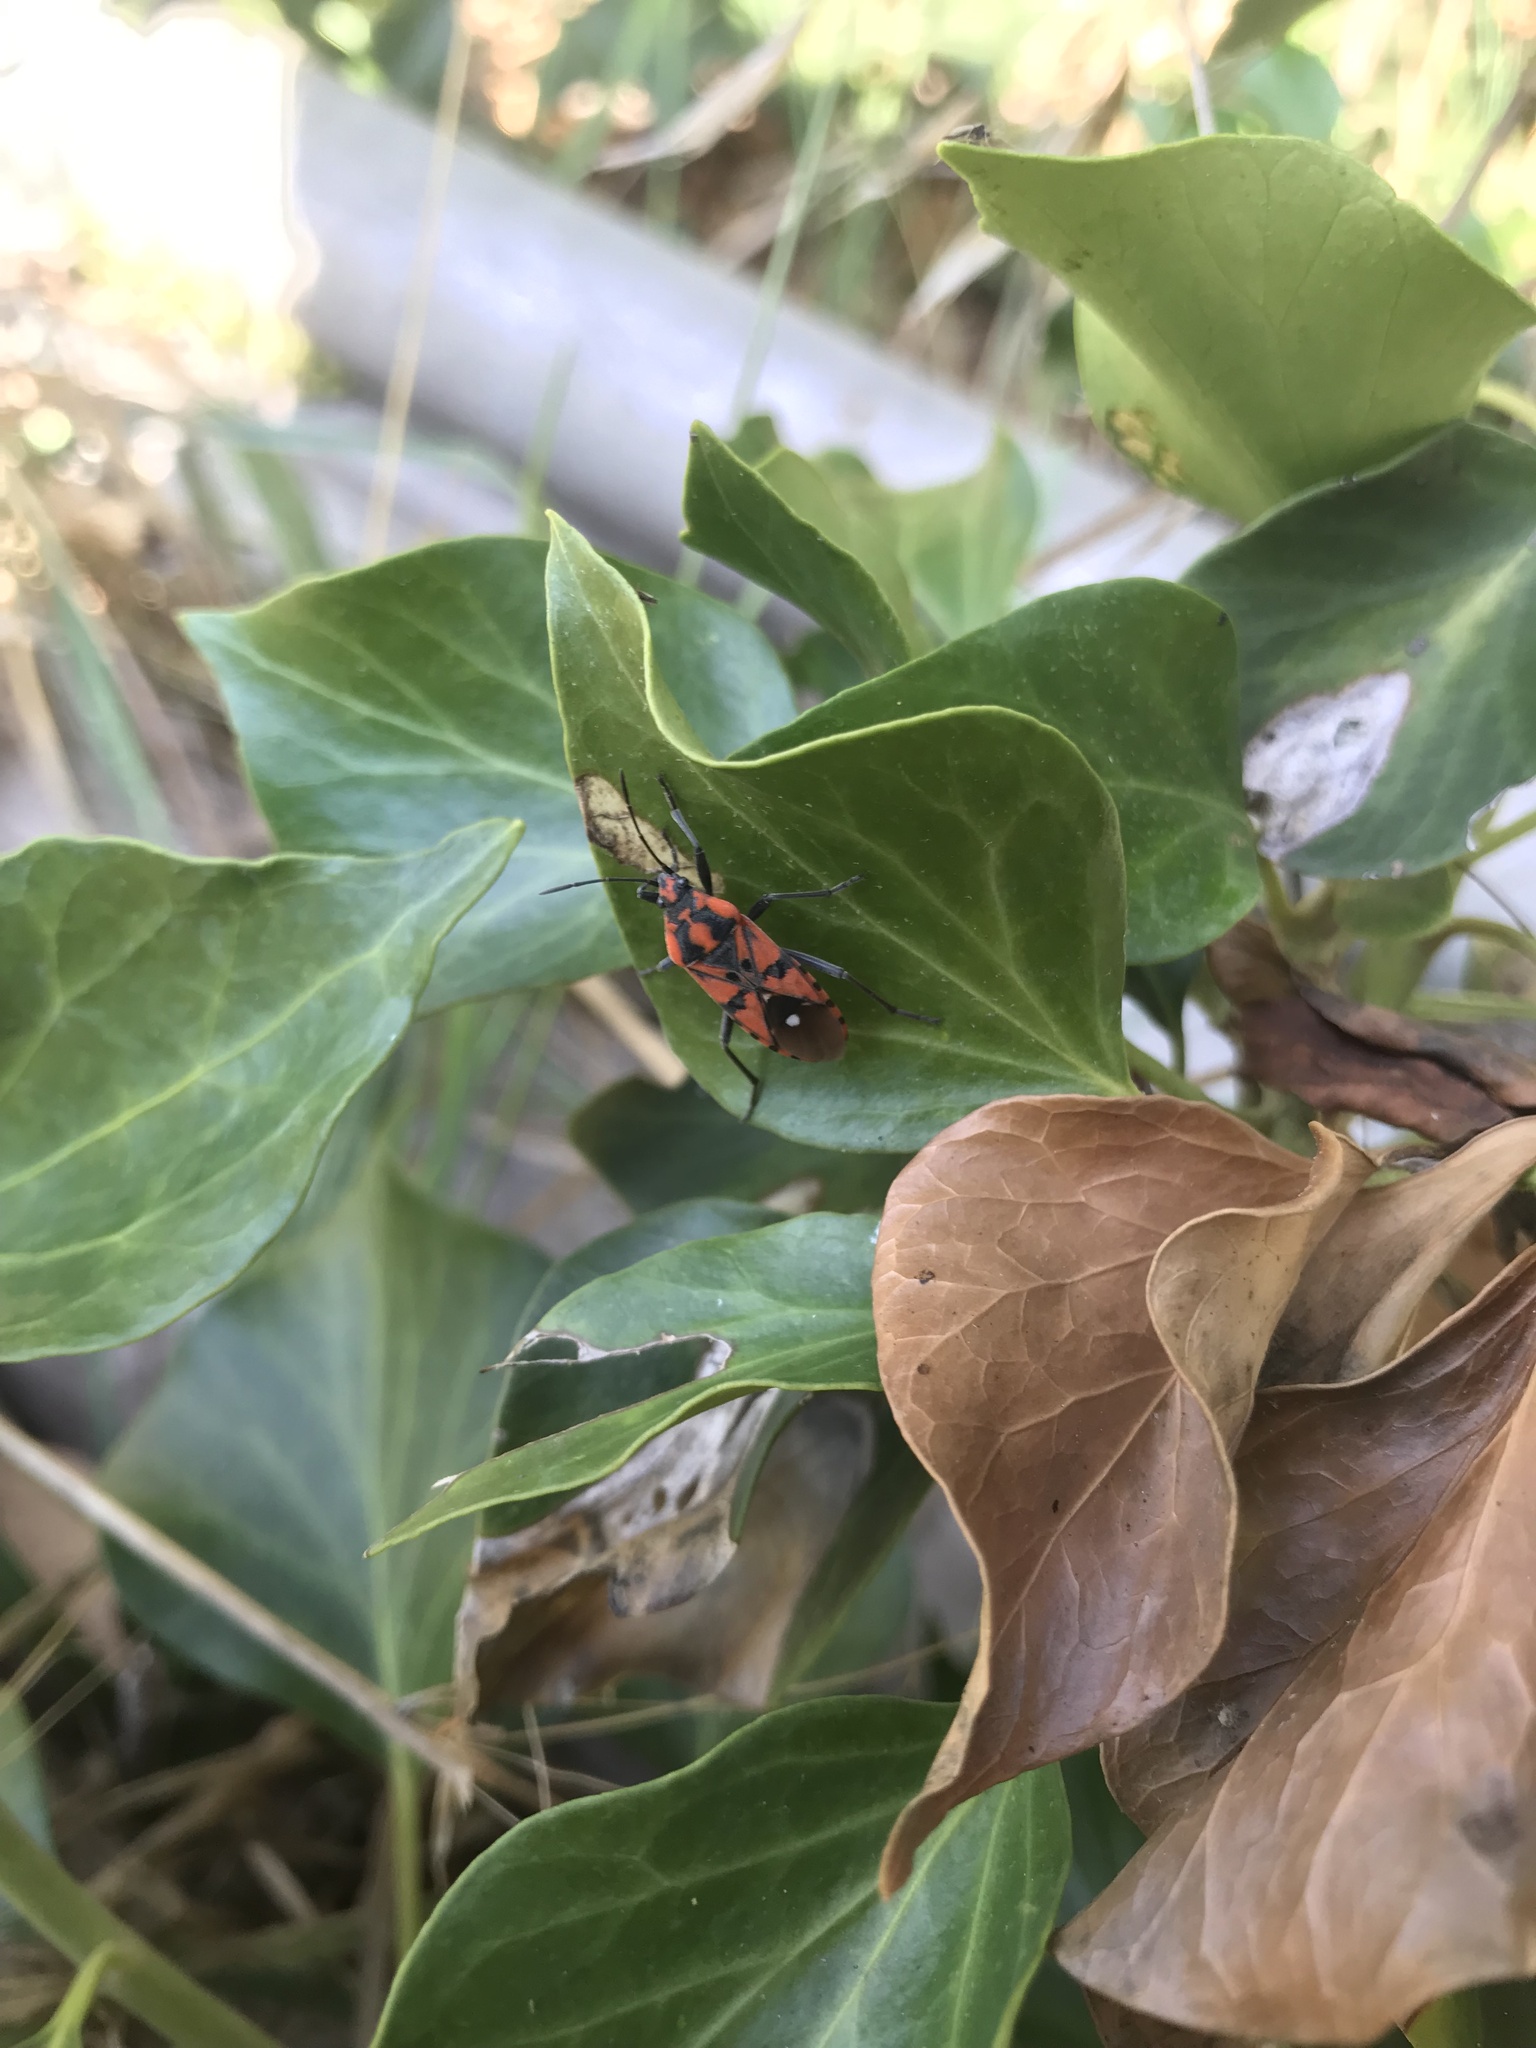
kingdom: Animalia
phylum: Arthropoda
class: Insecta
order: Hemiptera
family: Lygaeidae
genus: Spilostethus
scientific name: Spilostethus pandurus
